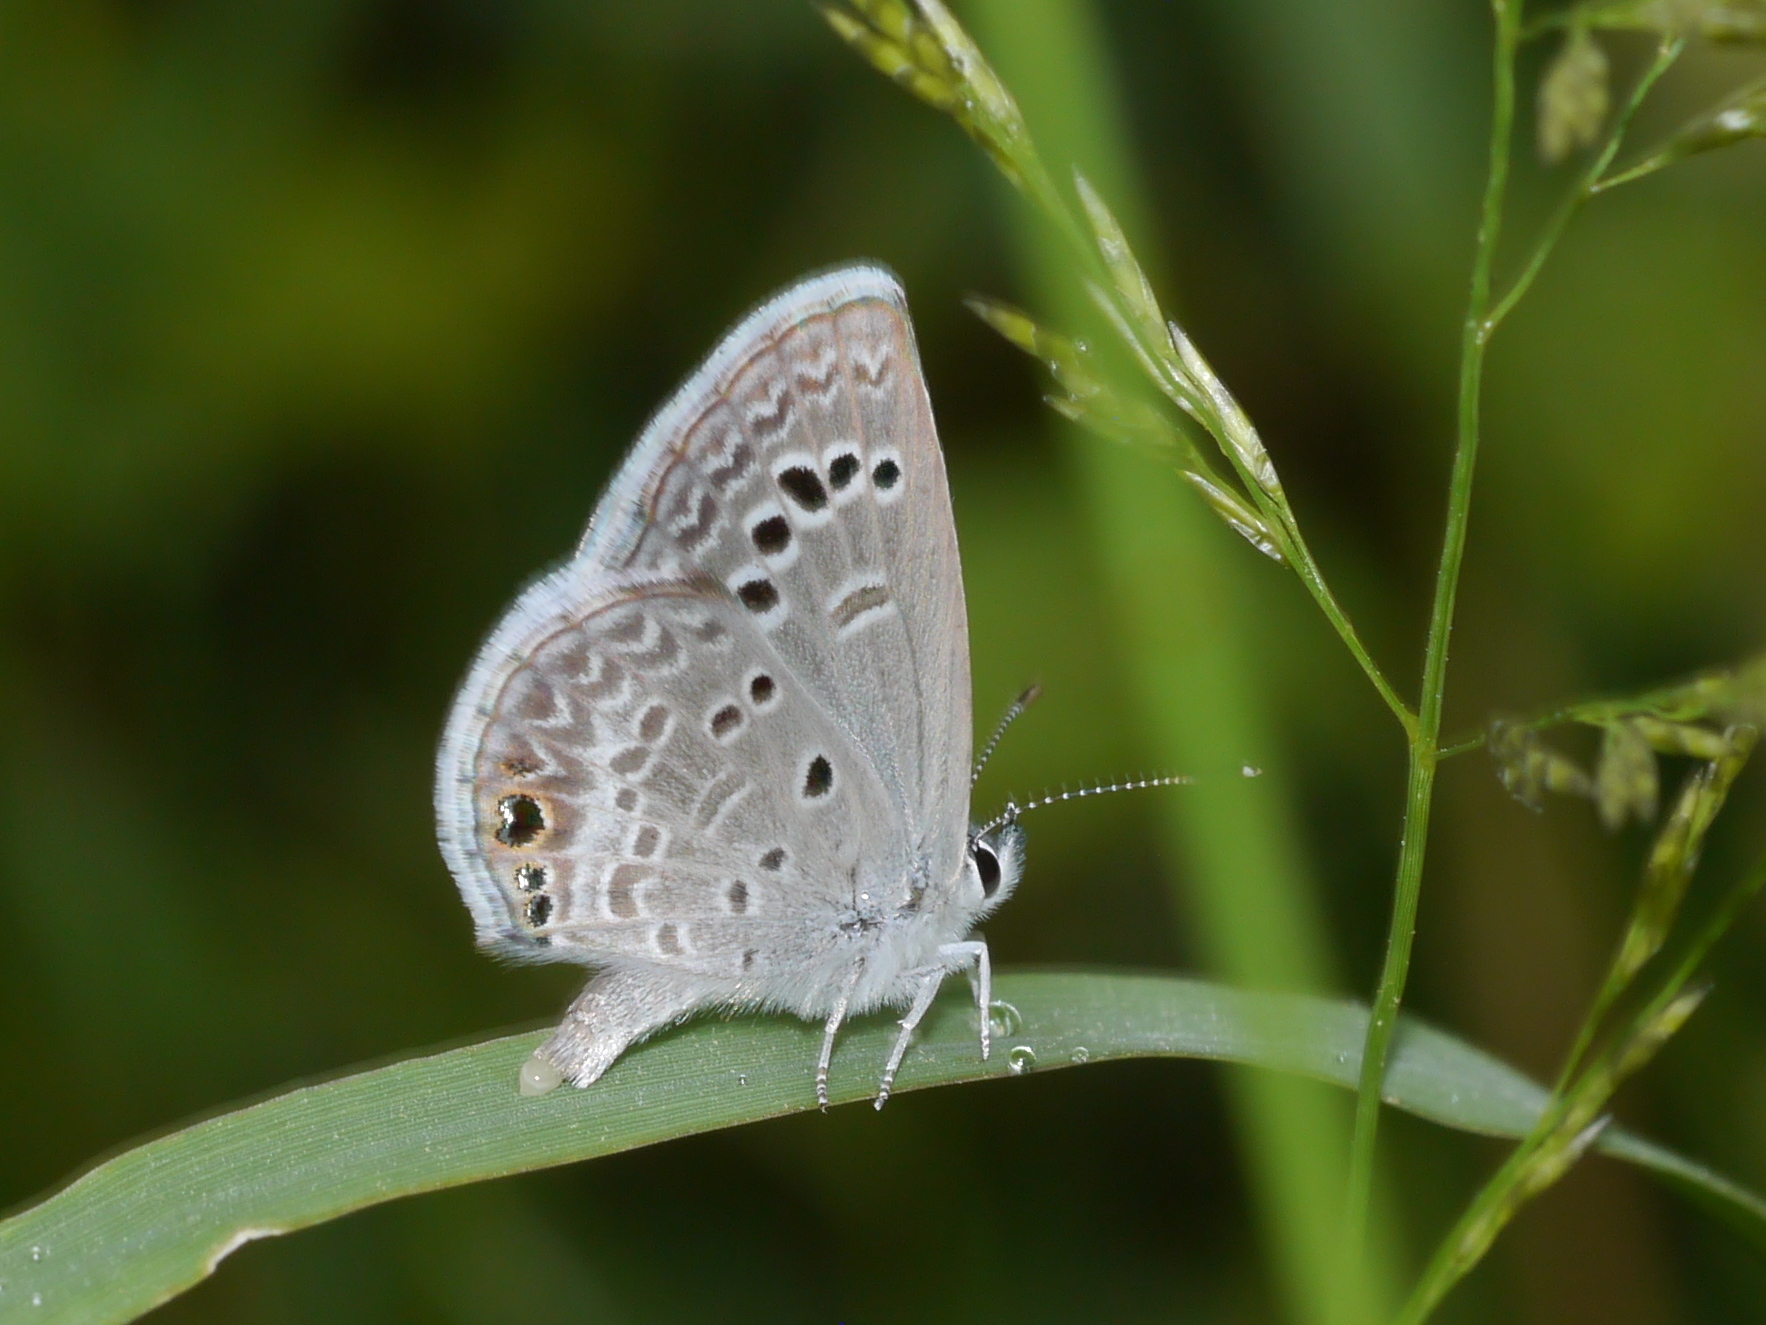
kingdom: Animalia
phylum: Arthropoda
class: Insecta
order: Lepidoptera
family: Lycaenidae
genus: Echinargus
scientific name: Echinargus isola
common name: Reakirt's blue
